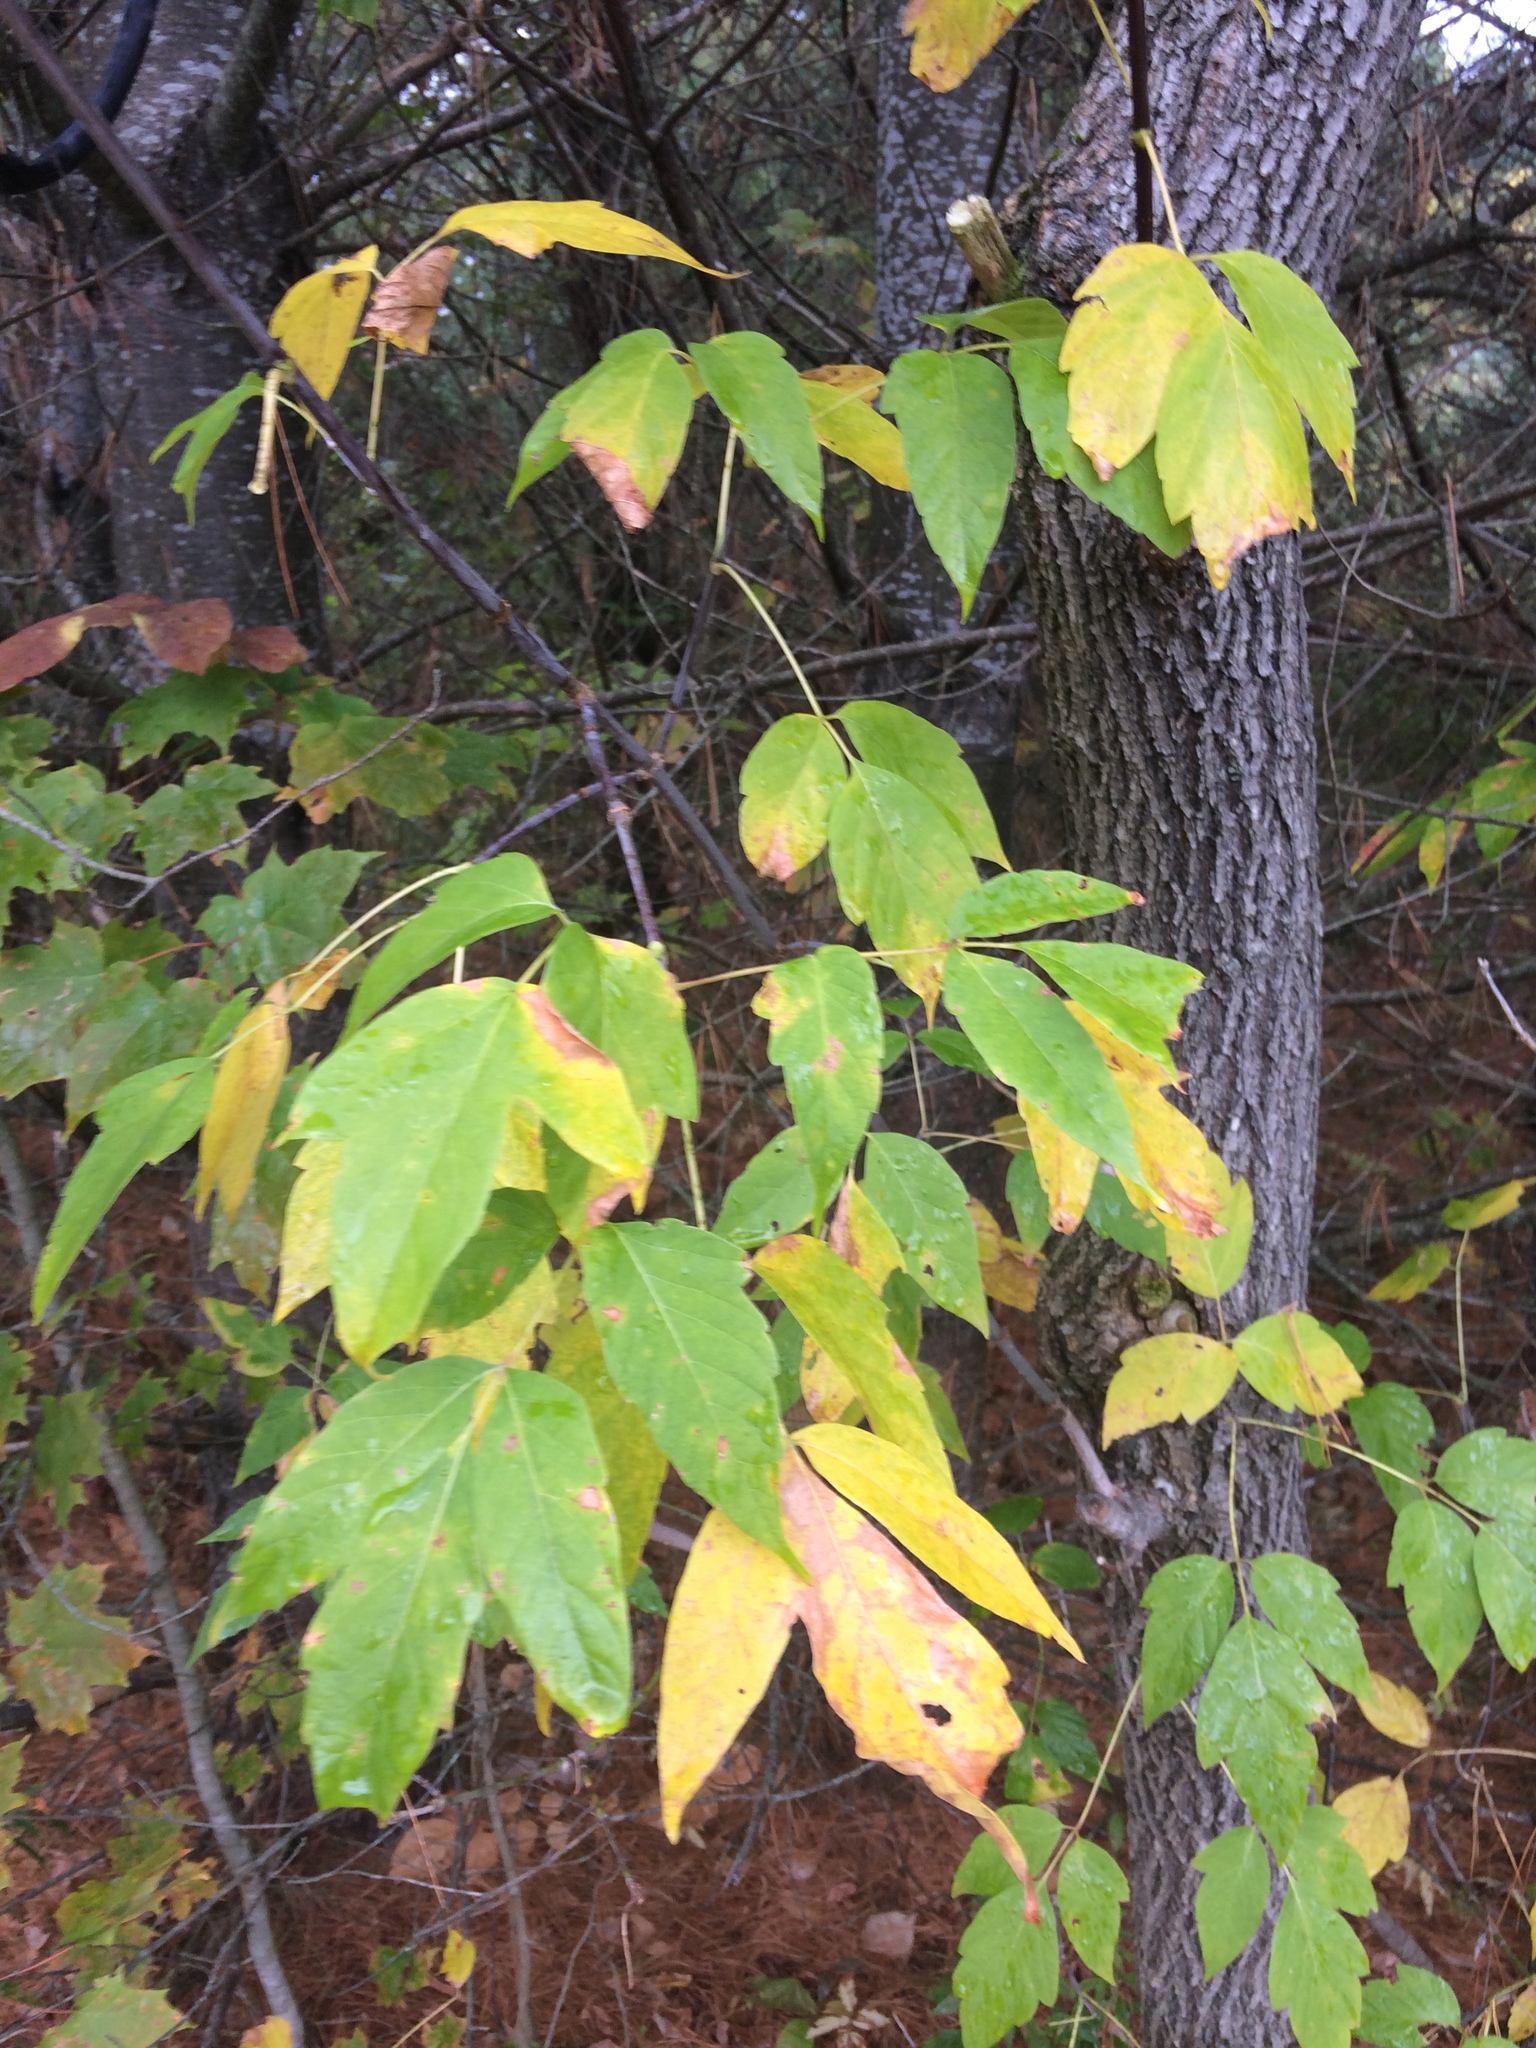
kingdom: Plantae
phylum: Tracheophyta
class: Magnoliopsida
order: Sapindales
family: Sapindaceae
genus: Acer
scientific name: Acer negundo
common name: Ashleaf maple
